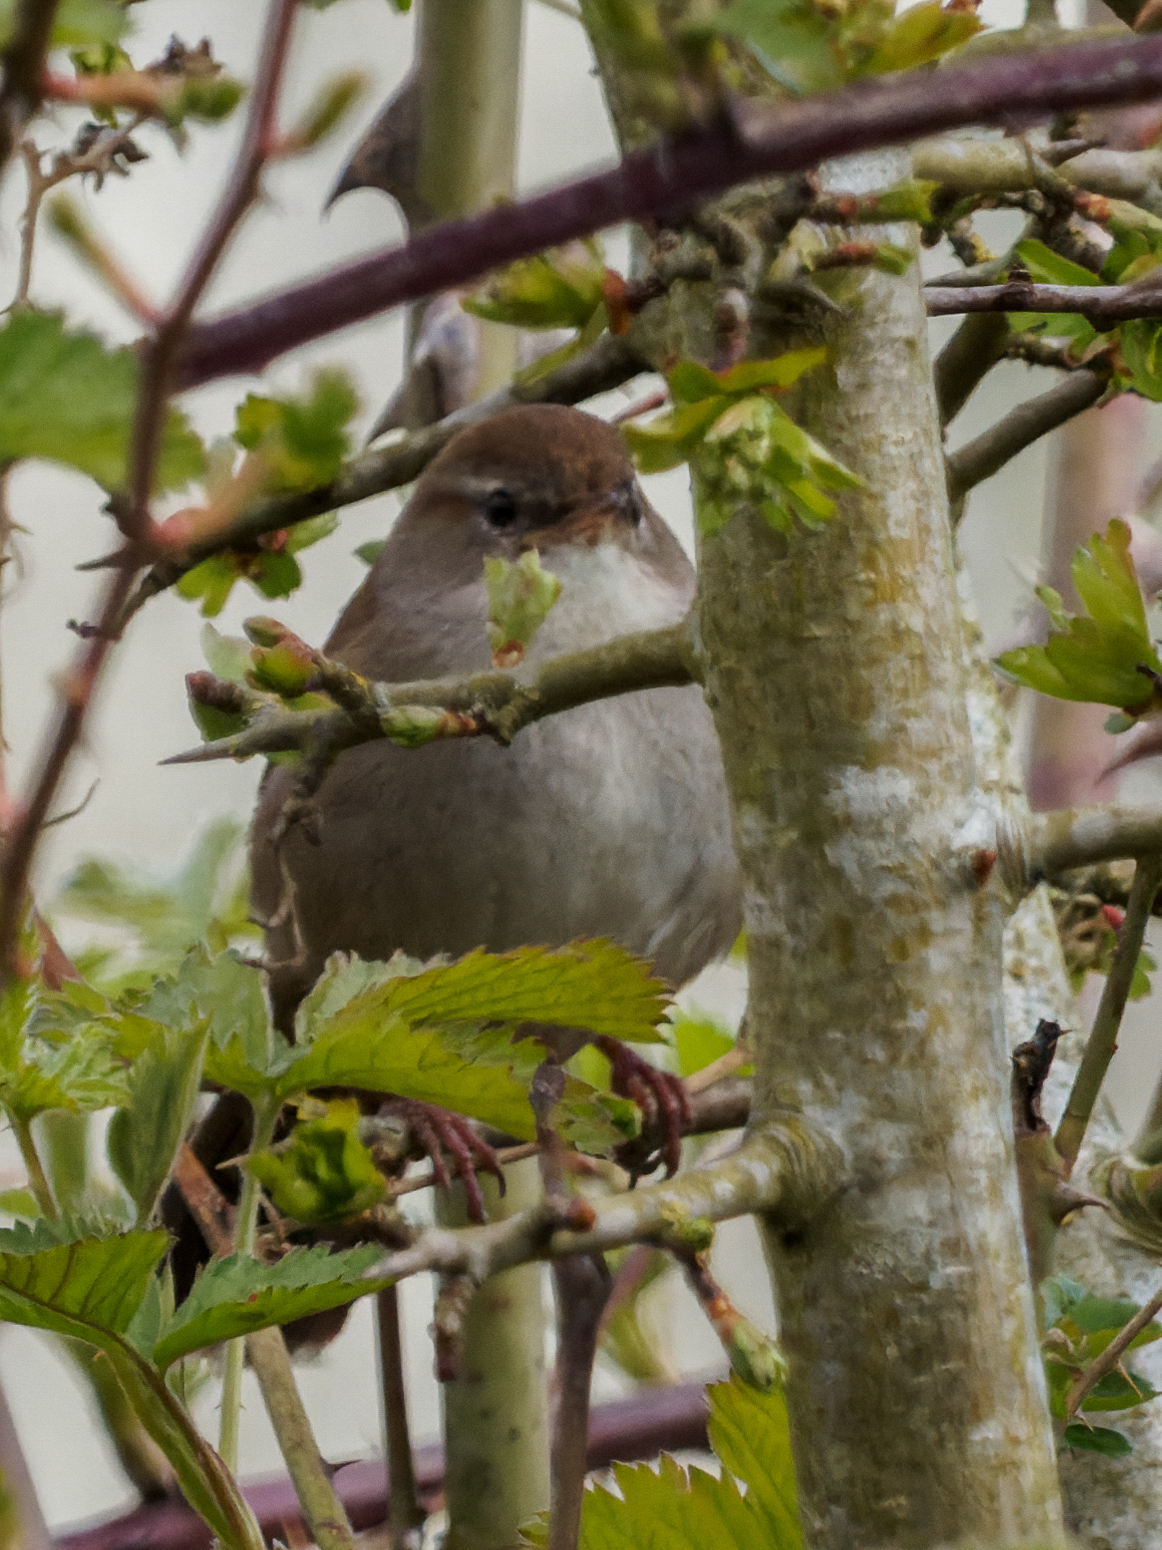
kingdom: Animalia
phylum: Chordata
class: Aves
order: Passeriformes
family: Cettiidae
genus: Cettia
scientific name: Cettia cetti
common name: Cetti's warbler
